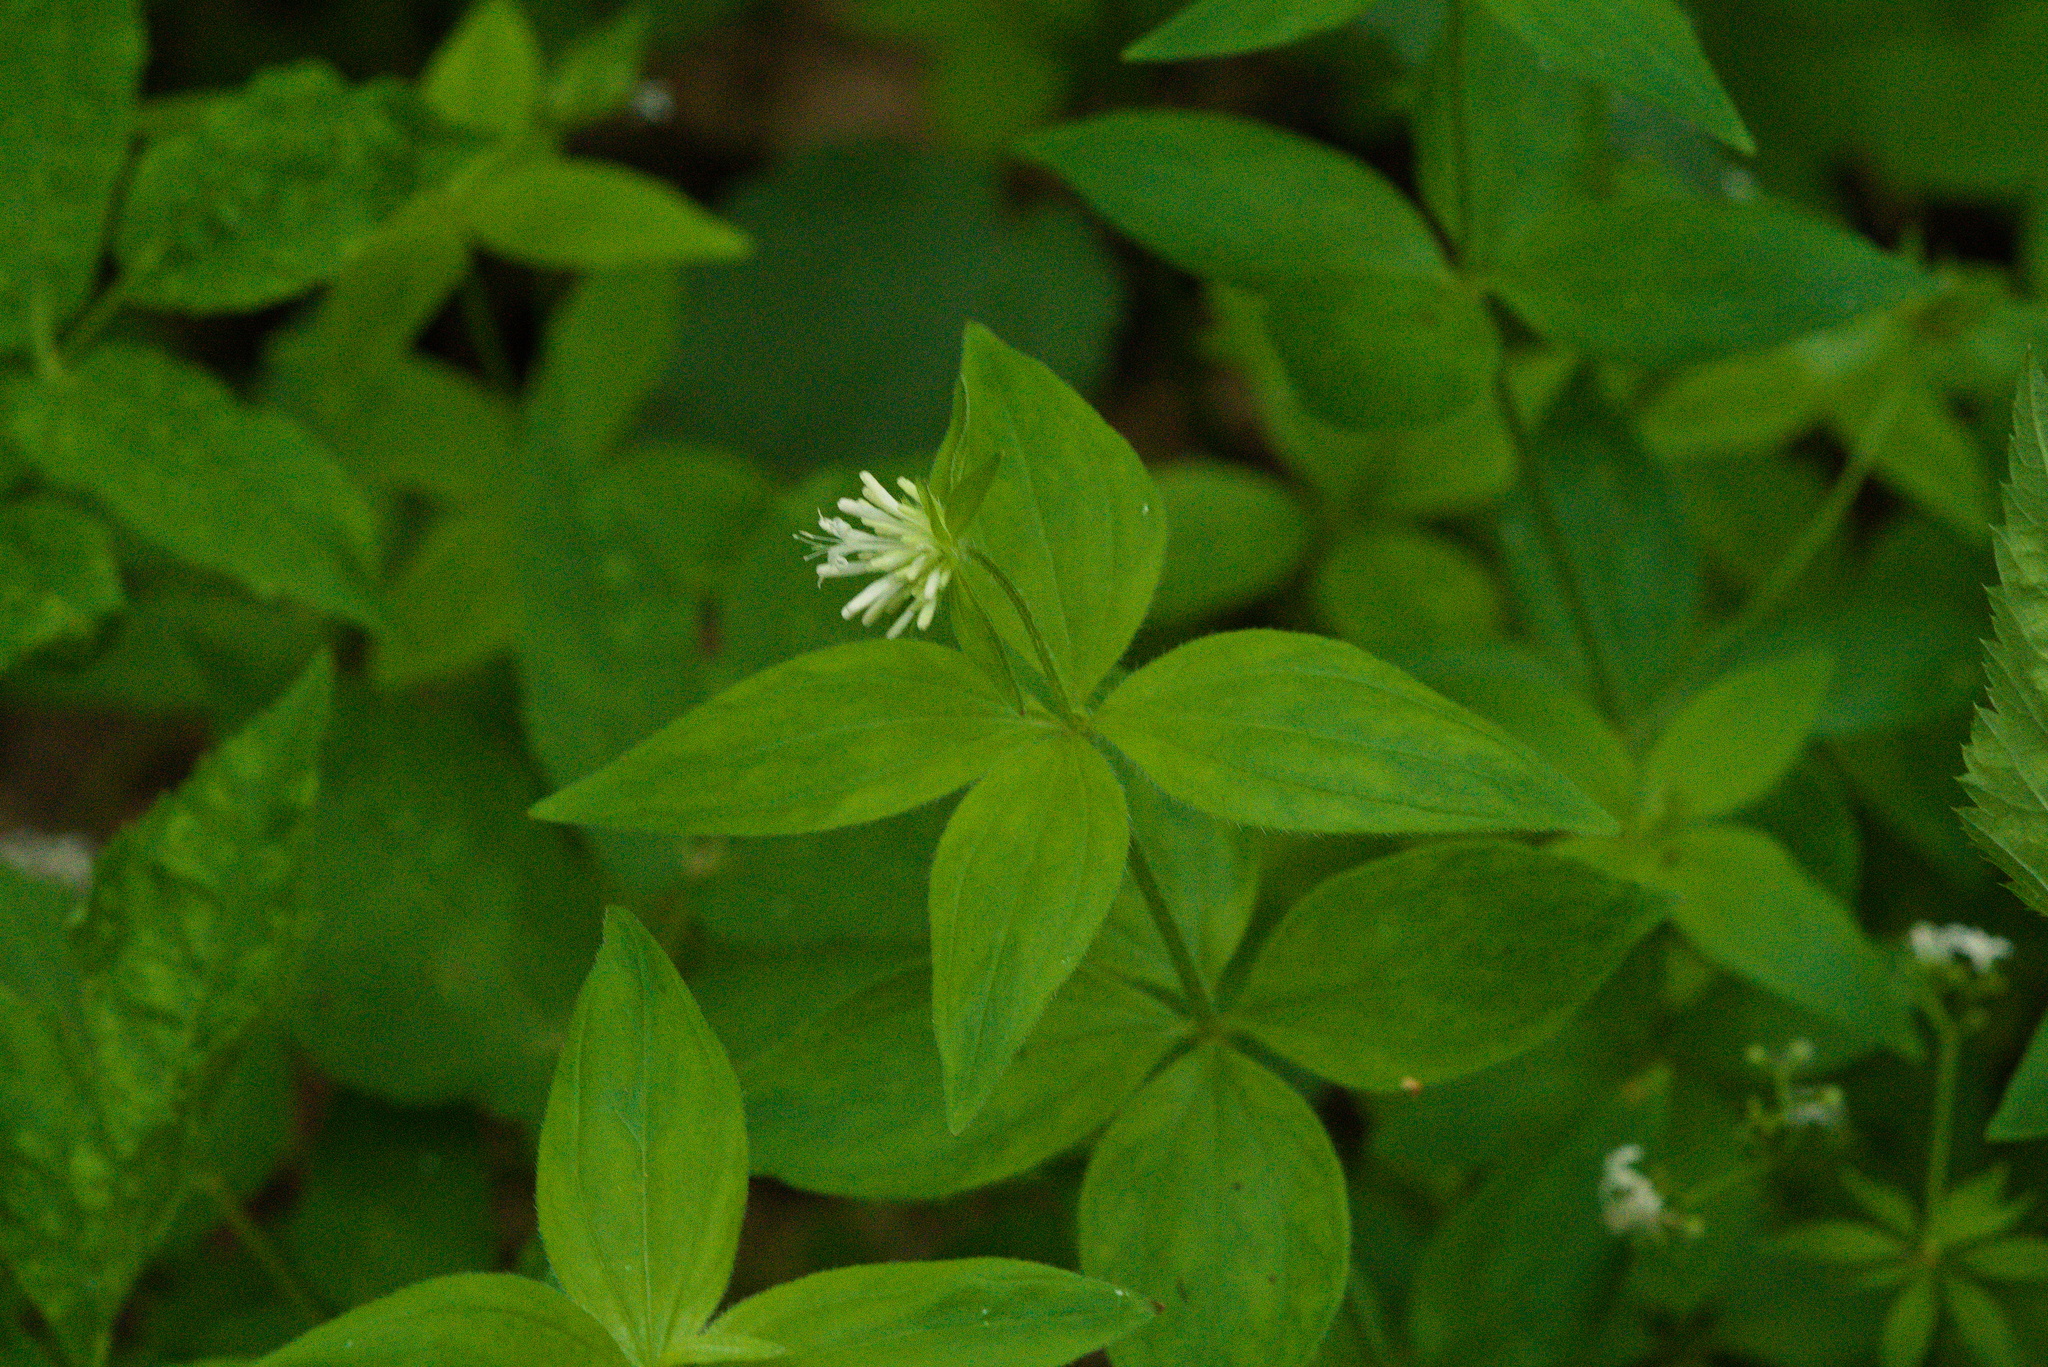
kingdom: Plantae
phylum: Tracheophyta
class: Magnoliopsida
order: Gentianales
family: Rubiaceae
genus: Asperula
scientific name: Asperula taurina
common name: Pink woodruff
